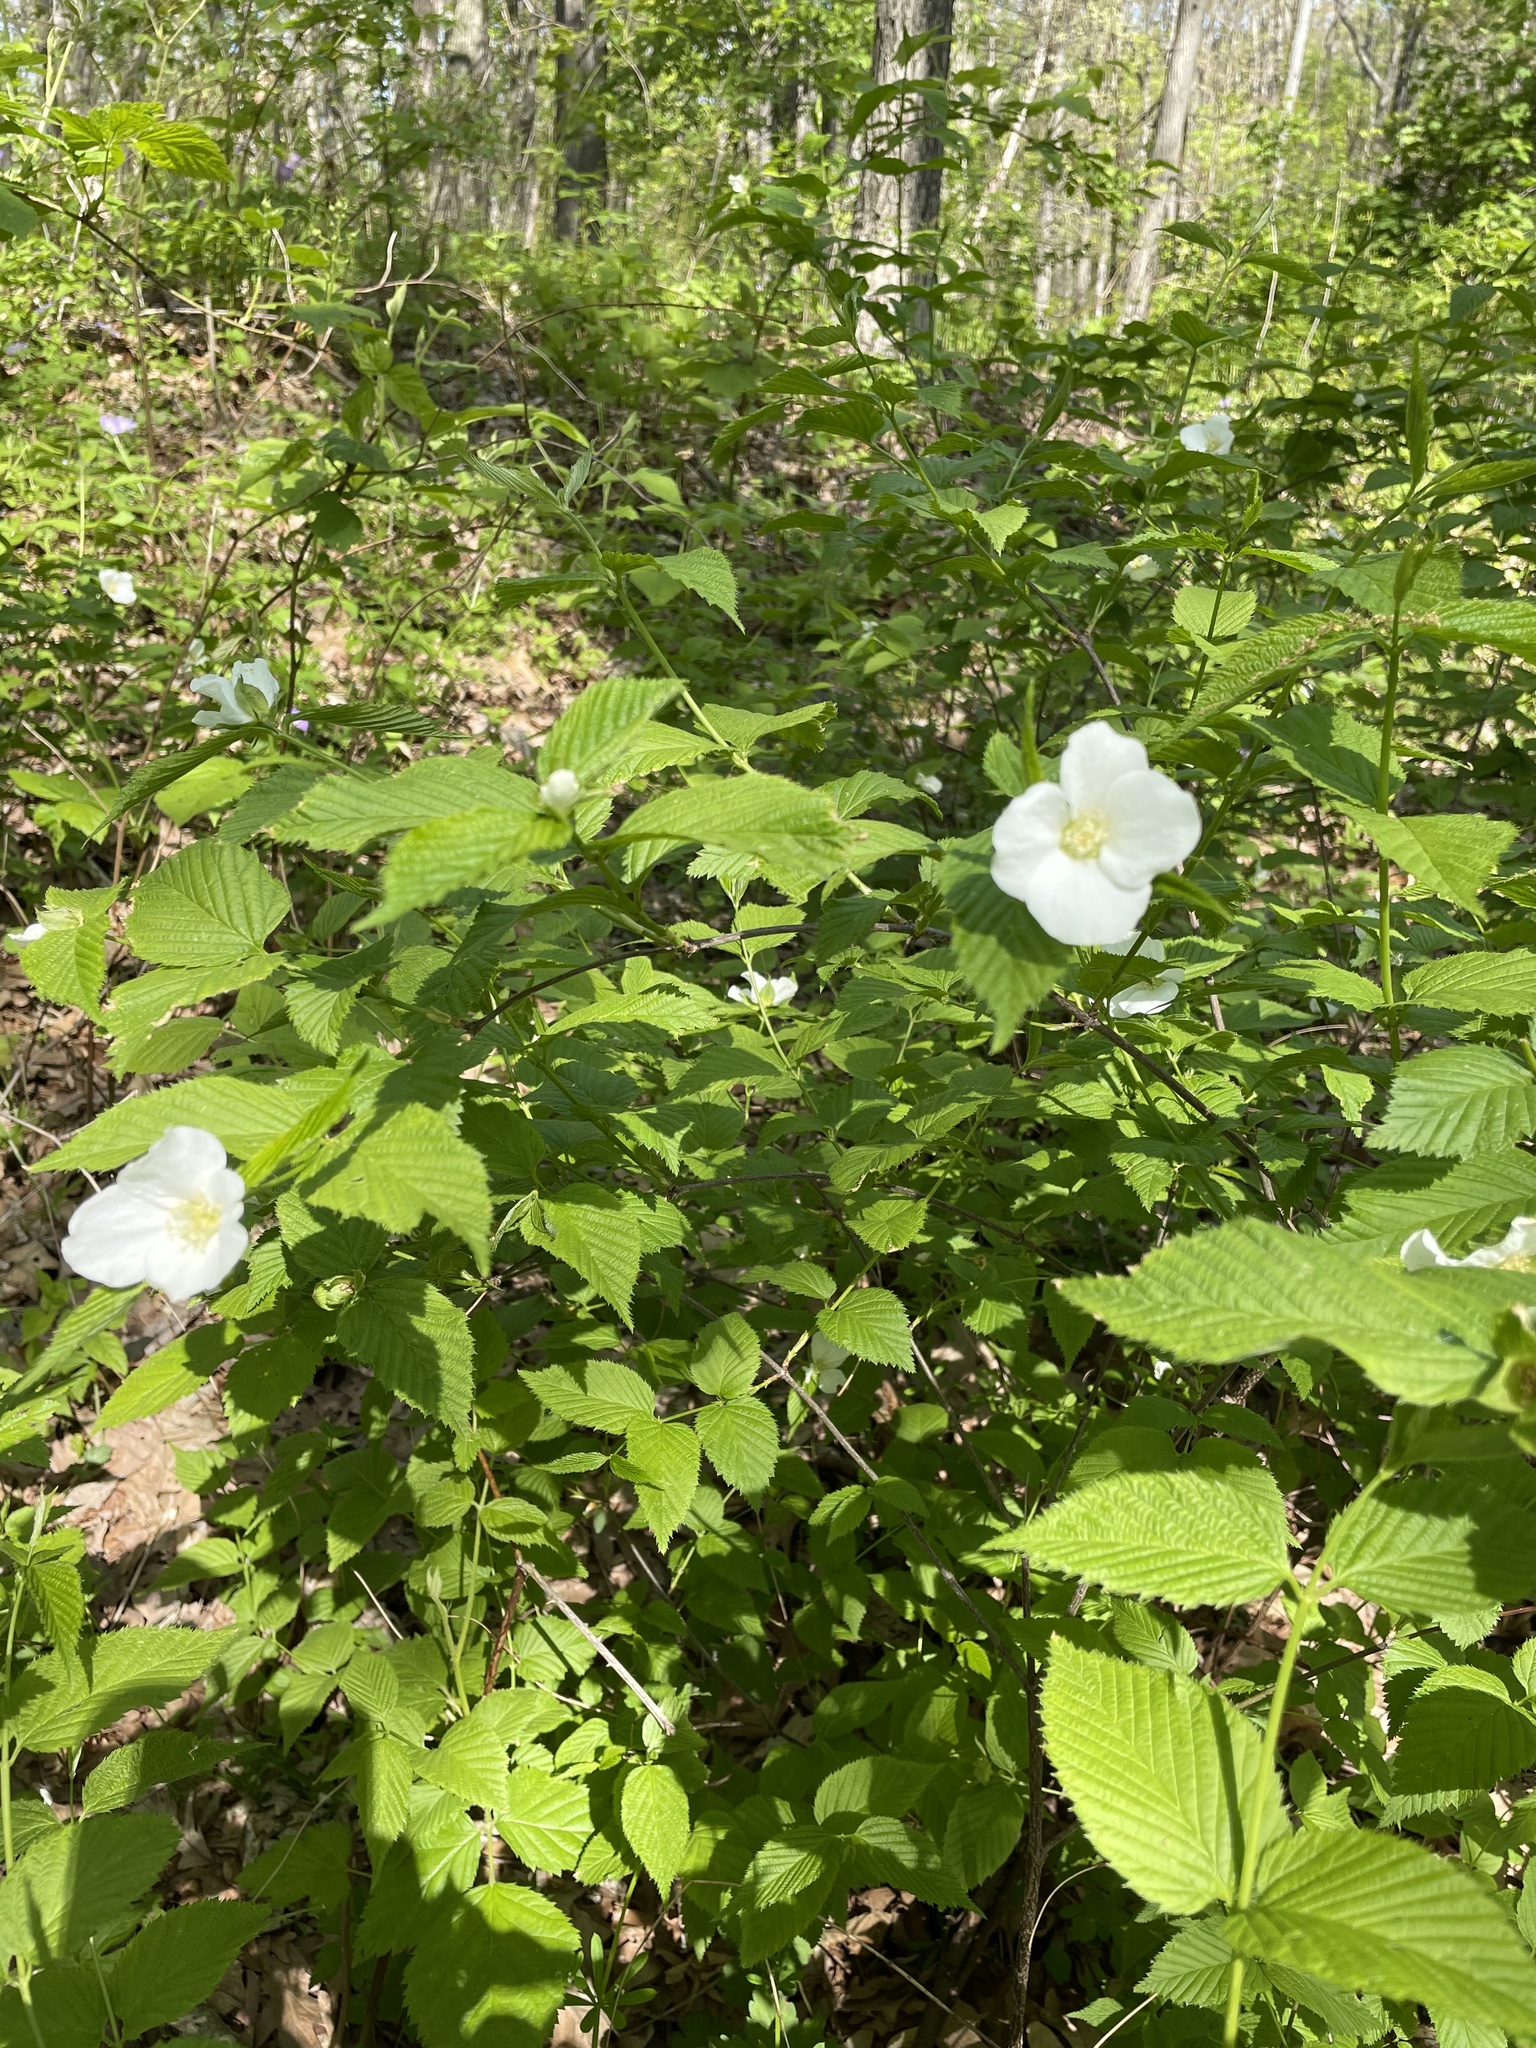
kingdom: Plantae
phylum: Tracheophyta
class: Magnoliopsida
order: Rosales
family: Rosaceae
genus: Rhodotypos
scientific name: Rhodotypos scandens
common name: Jetbead
